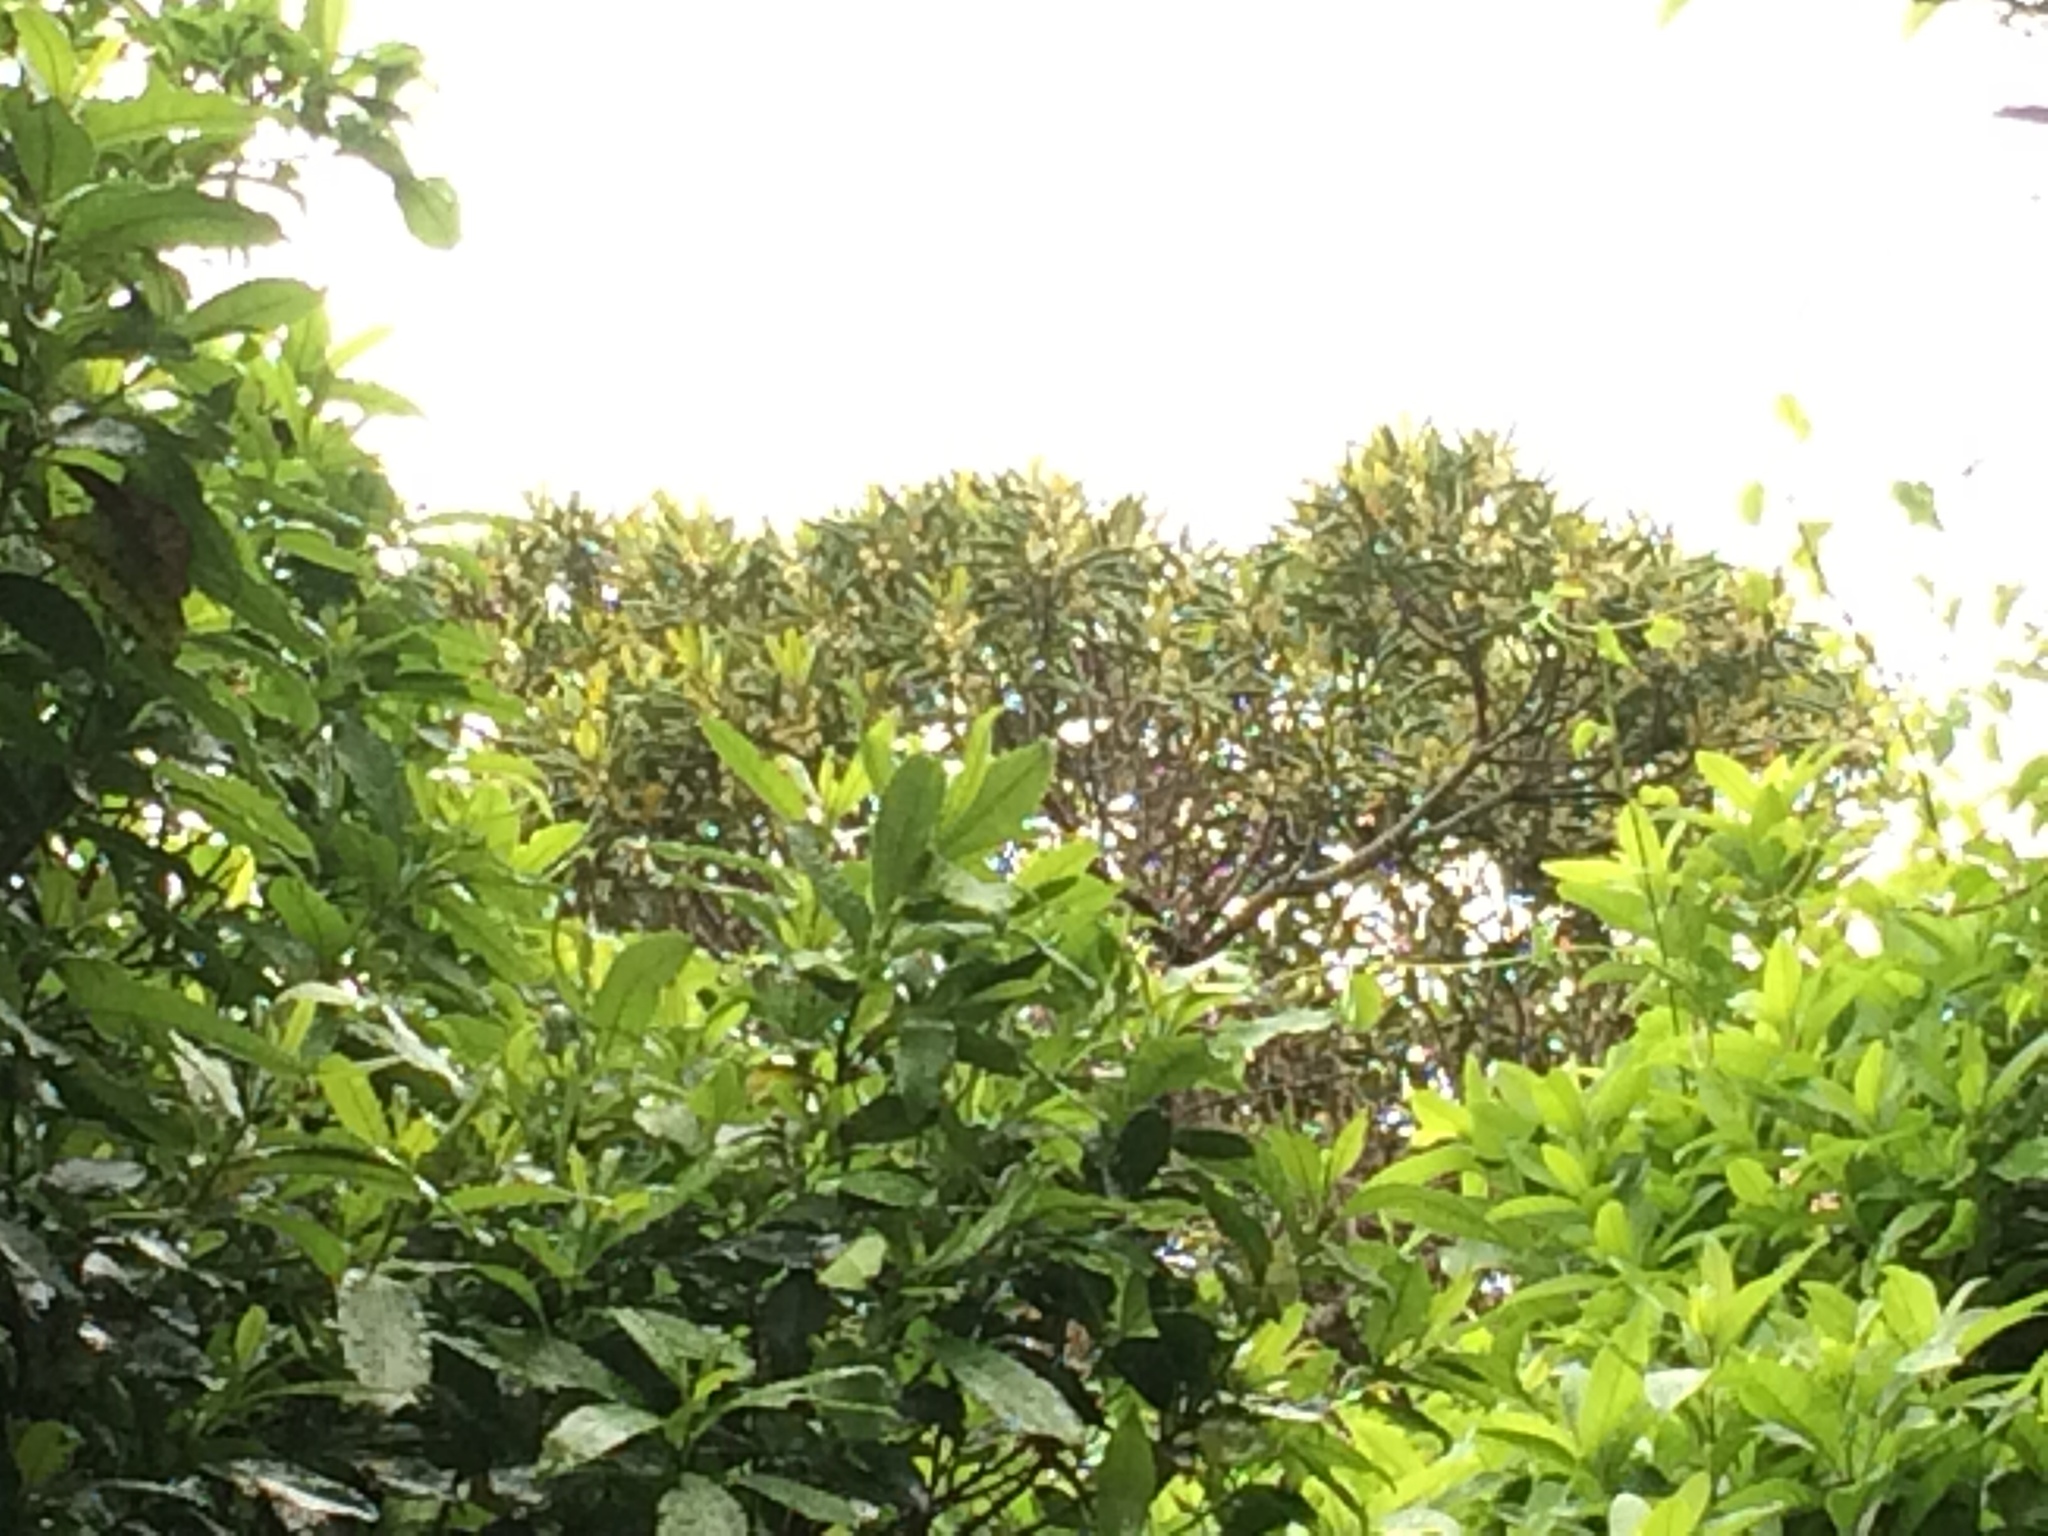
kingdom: Plantae
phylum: Tracheophyta
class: Magnoliopsida
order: Oxalidales
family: Elaeocarpaceae
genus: Elaeocarpus
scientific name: Elaeocarpus dentatus
